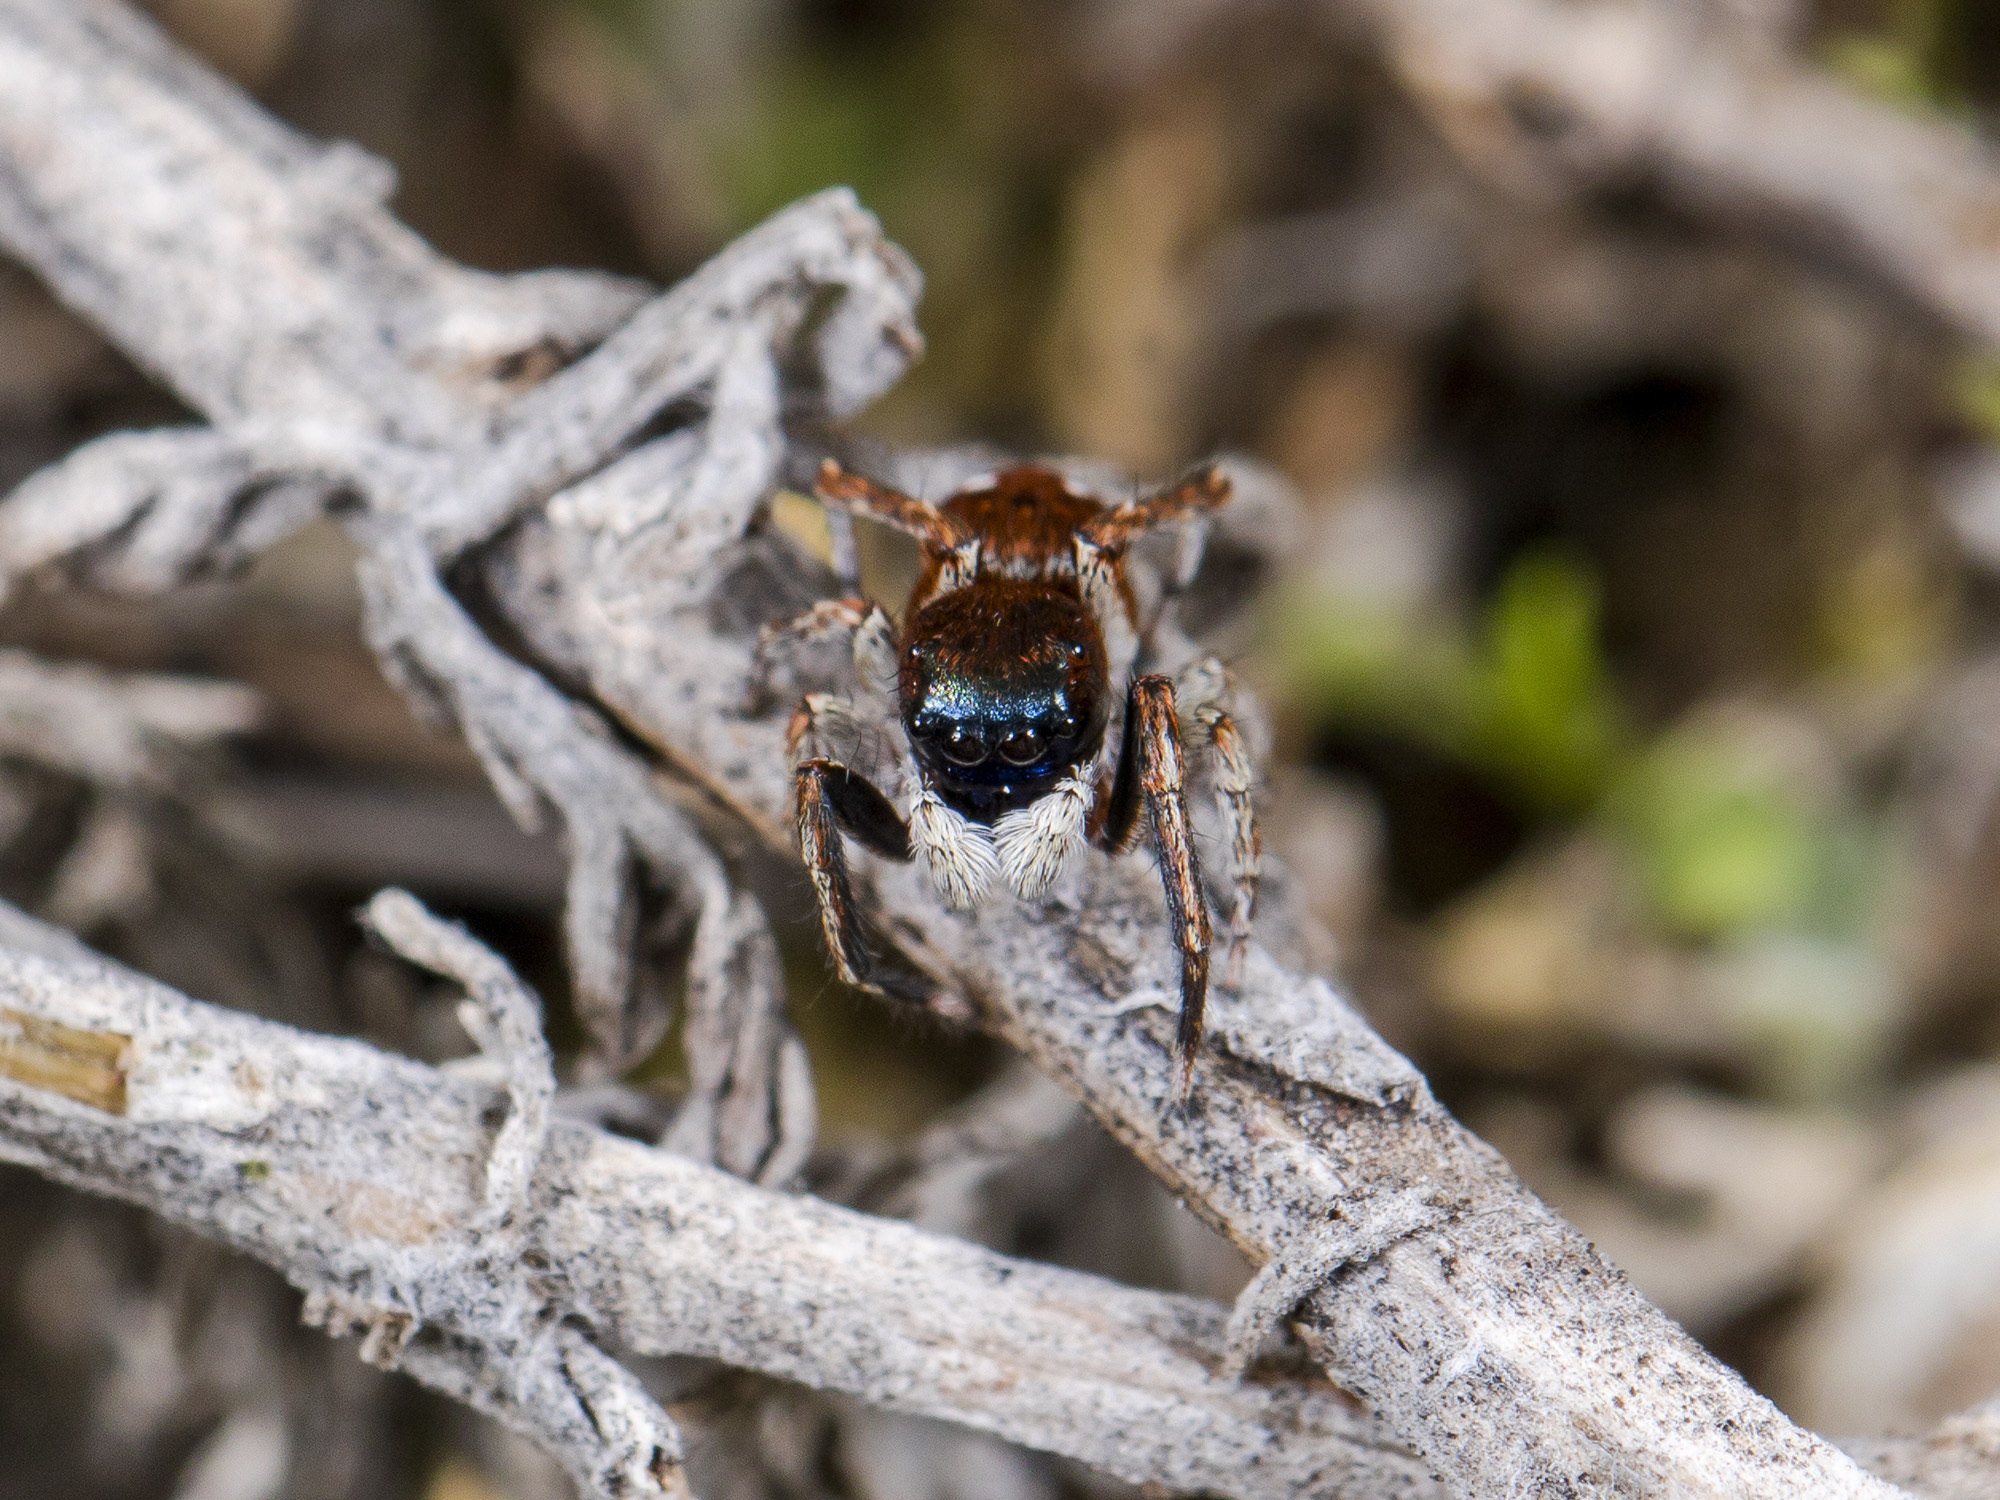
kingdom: Animalia
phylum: Arthropoda
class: Arachnida
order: Araneae
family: Salticidae
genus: Attulus
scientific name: Attulus mirandus
